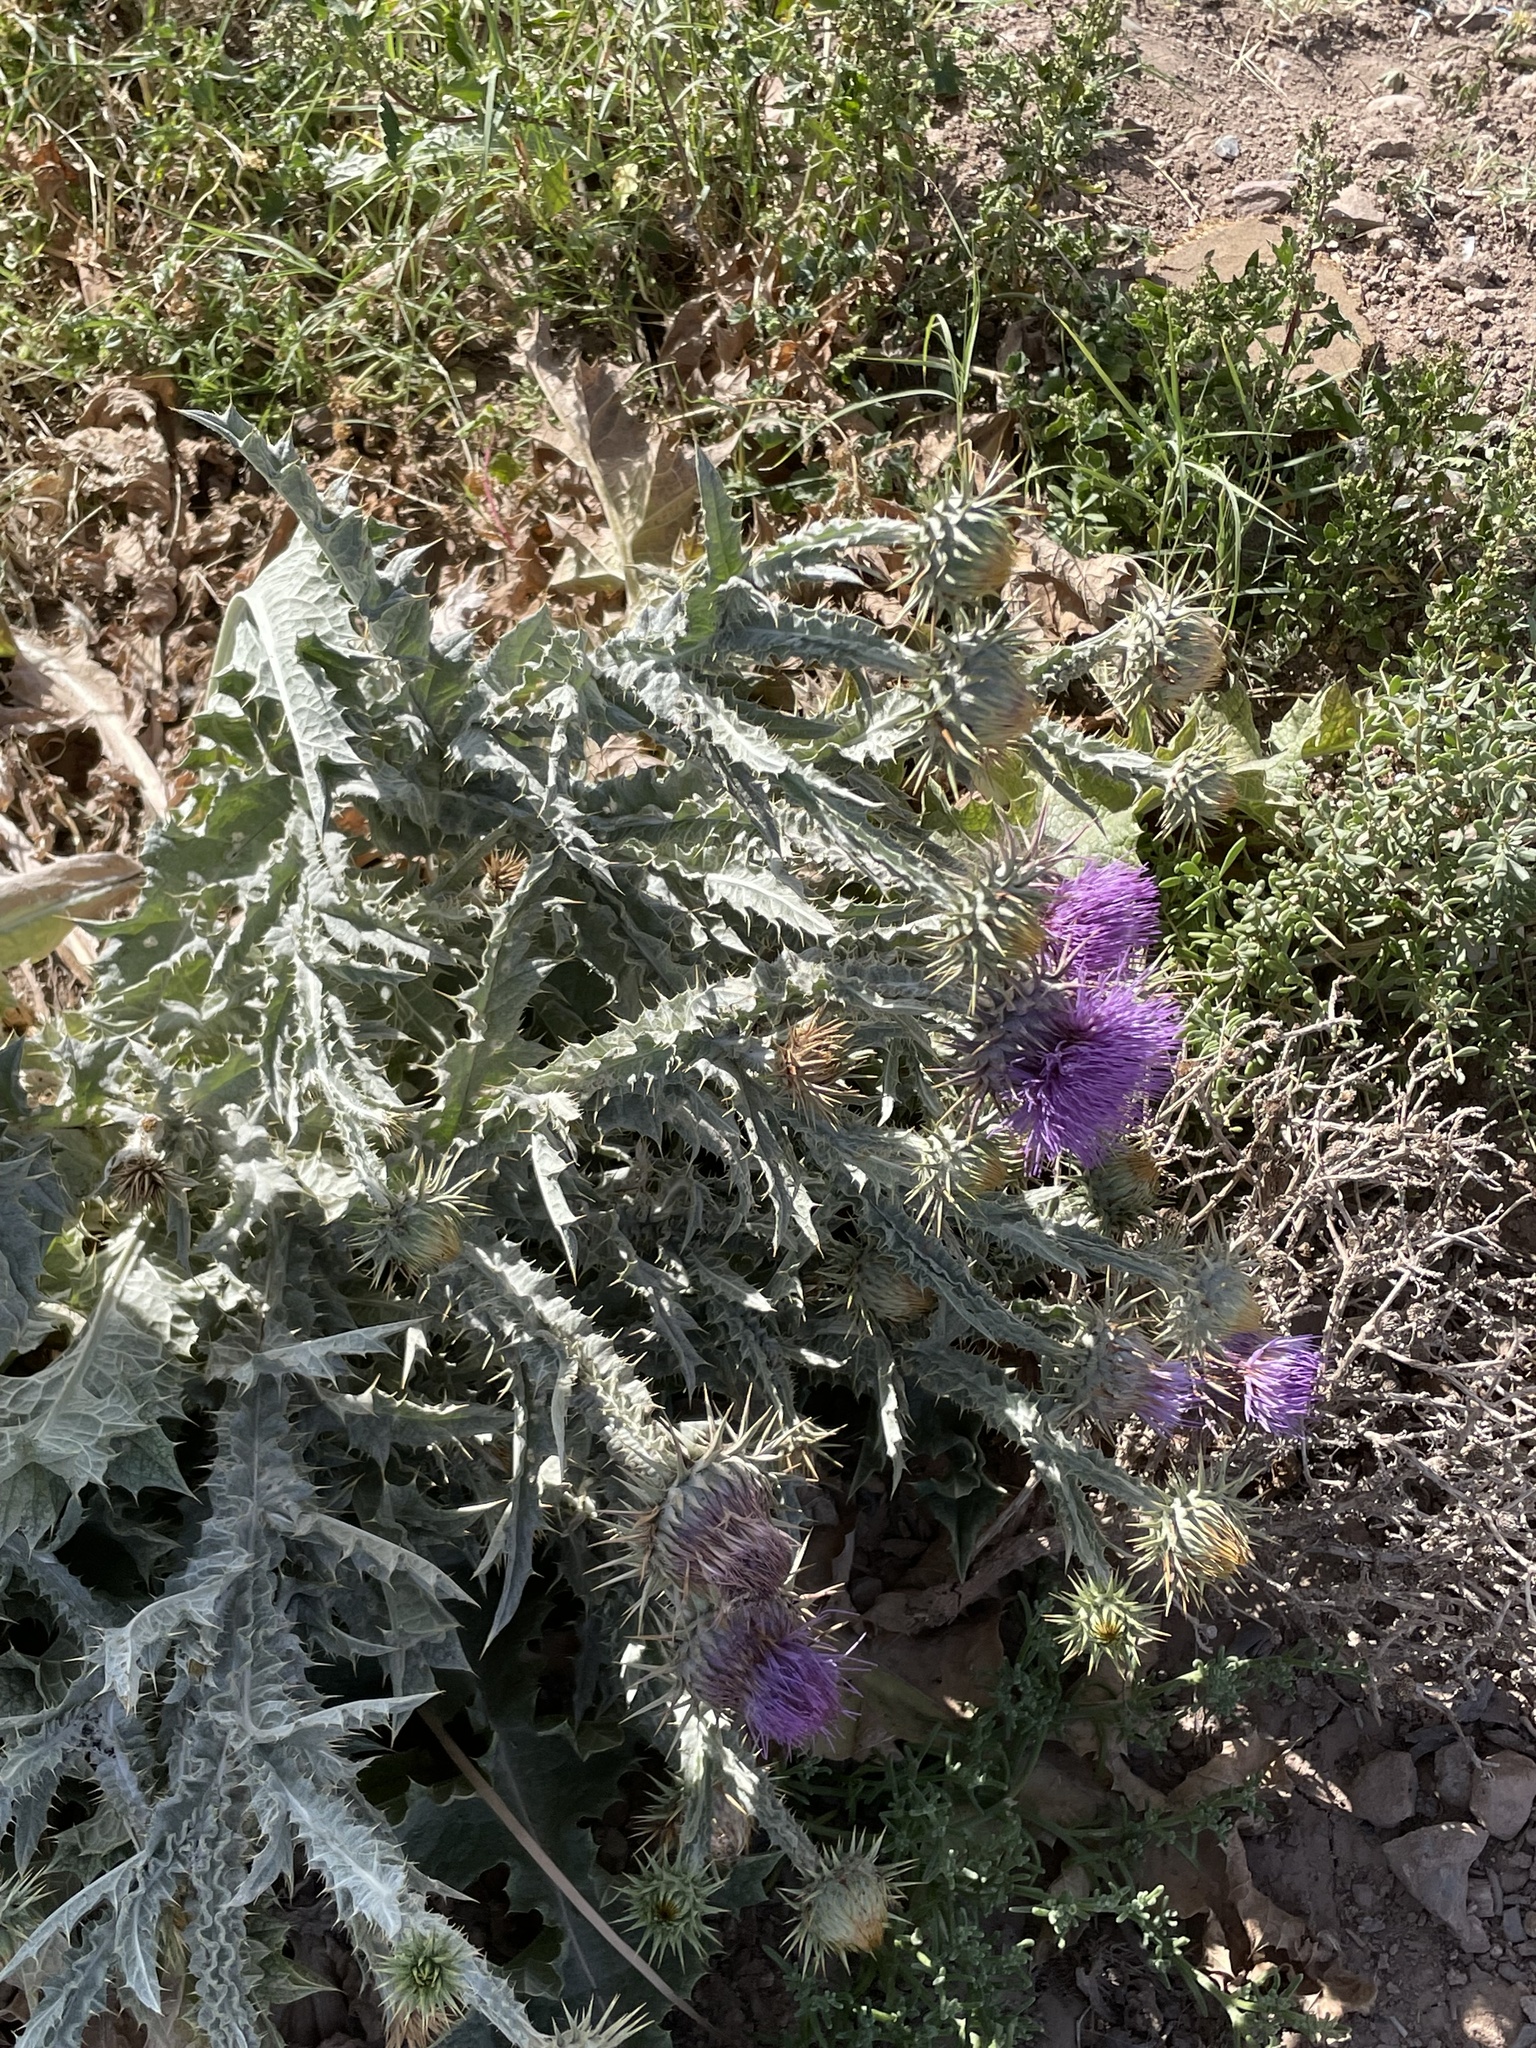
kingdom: Plantae
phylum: Tracheophyta
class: Magnoliopsida
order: Asterales
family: Asteraceae
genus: Onopordum
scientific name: Onopordum macracanthum
